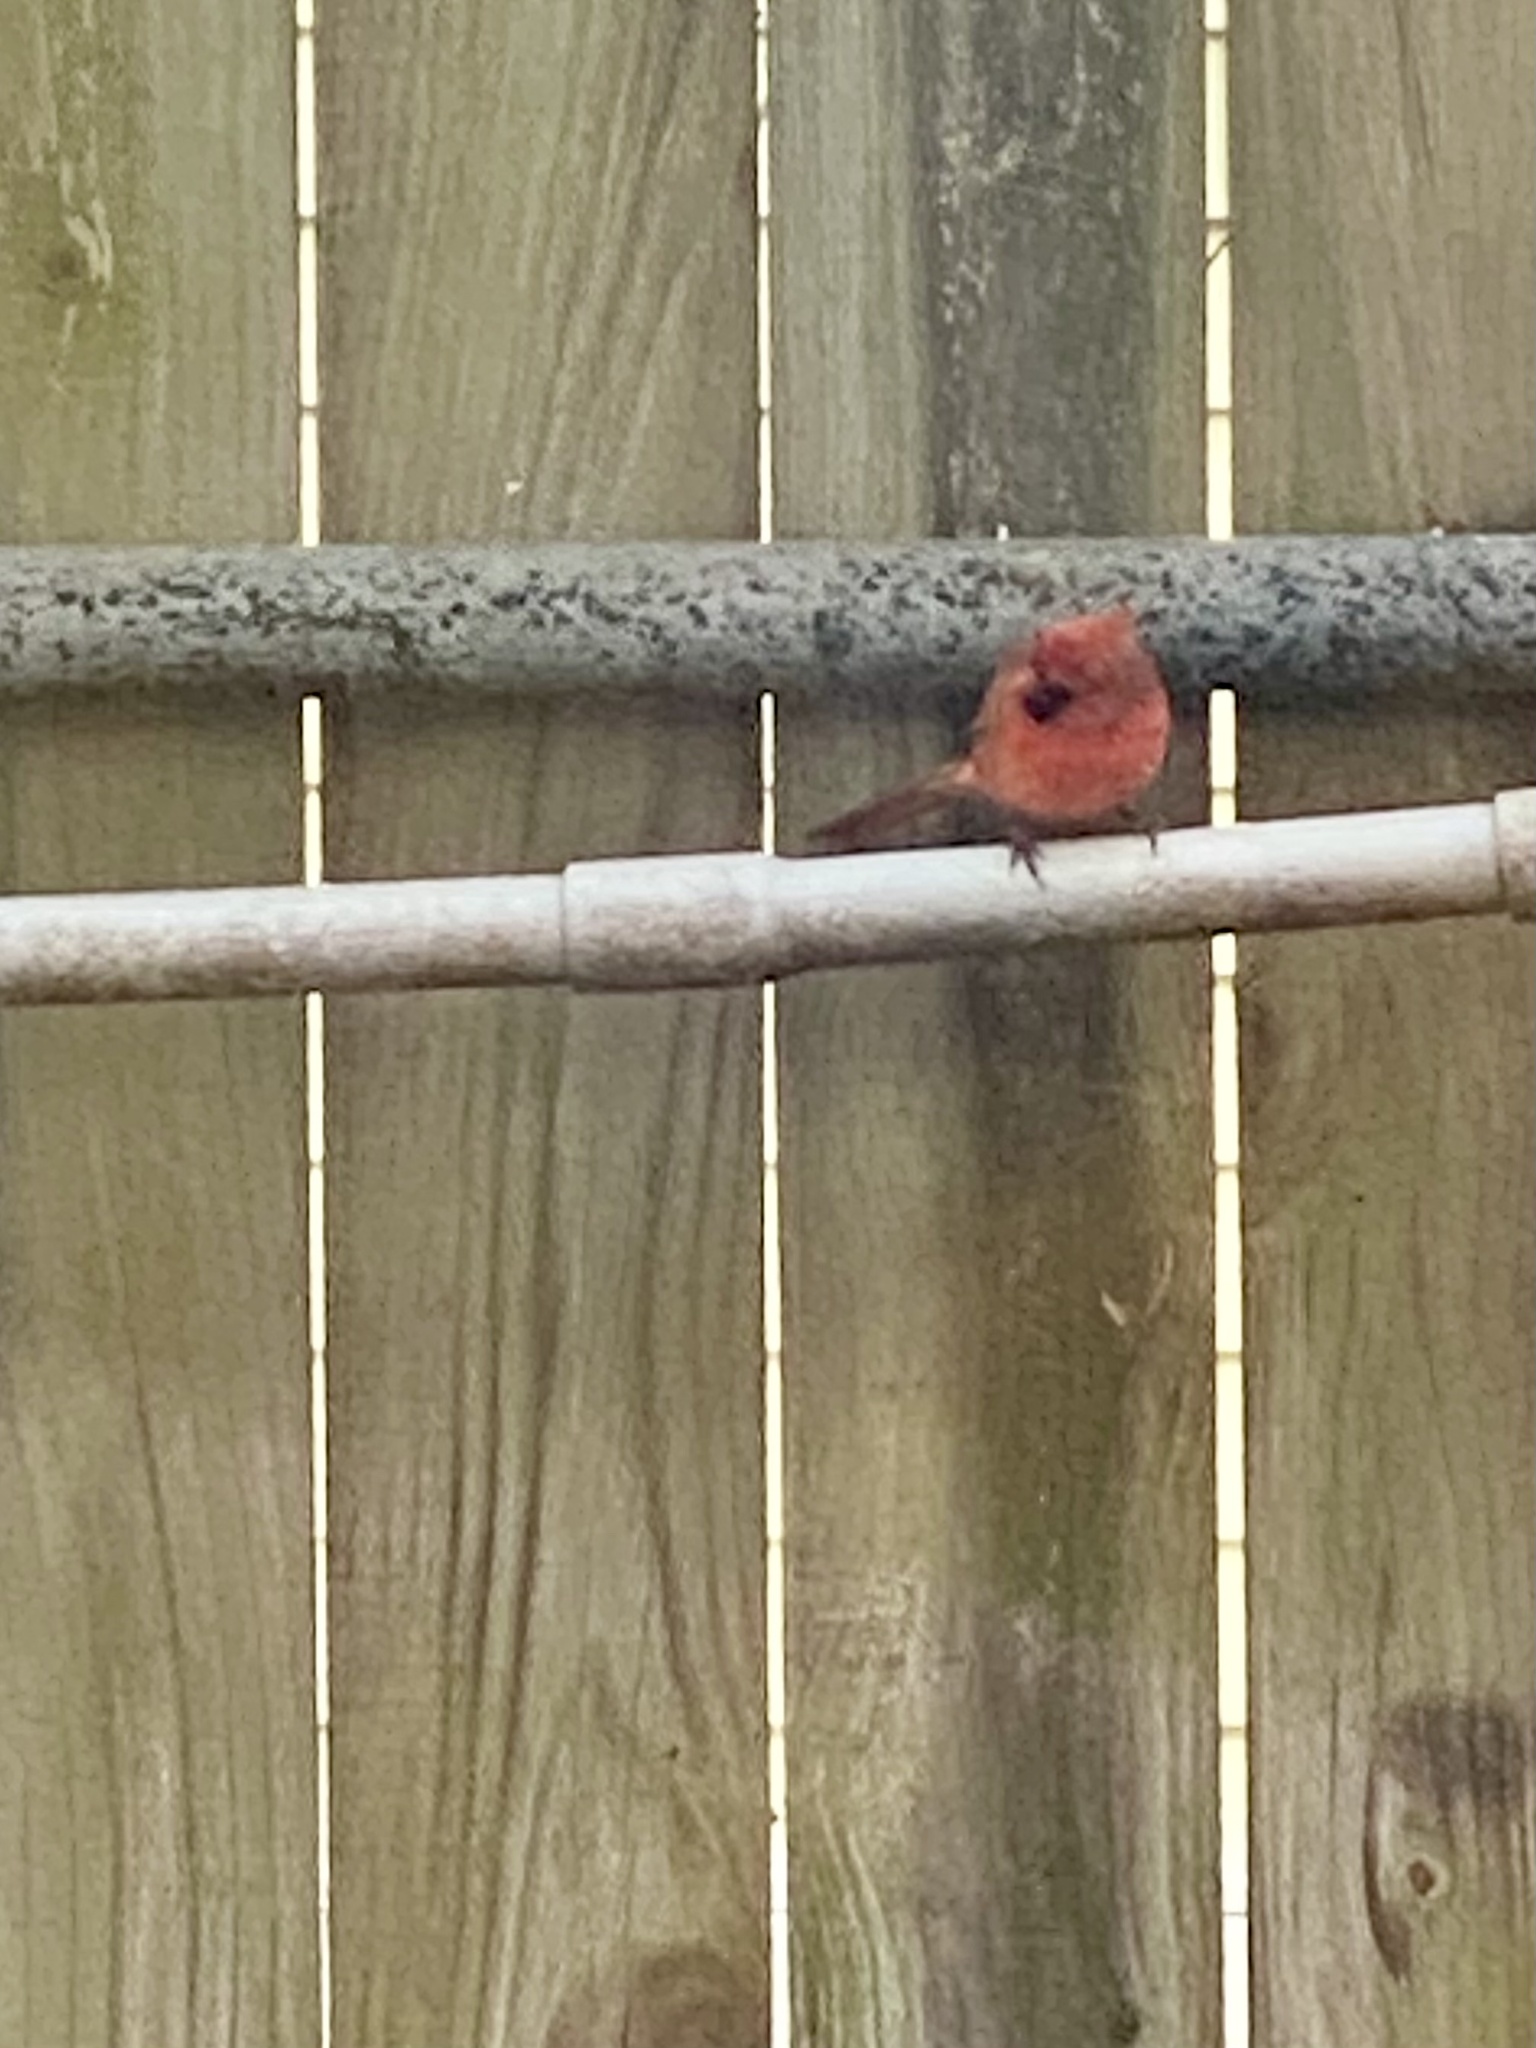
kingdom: Animalia
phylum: Chordata
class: Aves
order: Passeriformes
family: Cardinalidae
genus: Cardinalis
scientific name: Cardinalis cardinalis
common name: Northern cardinal
